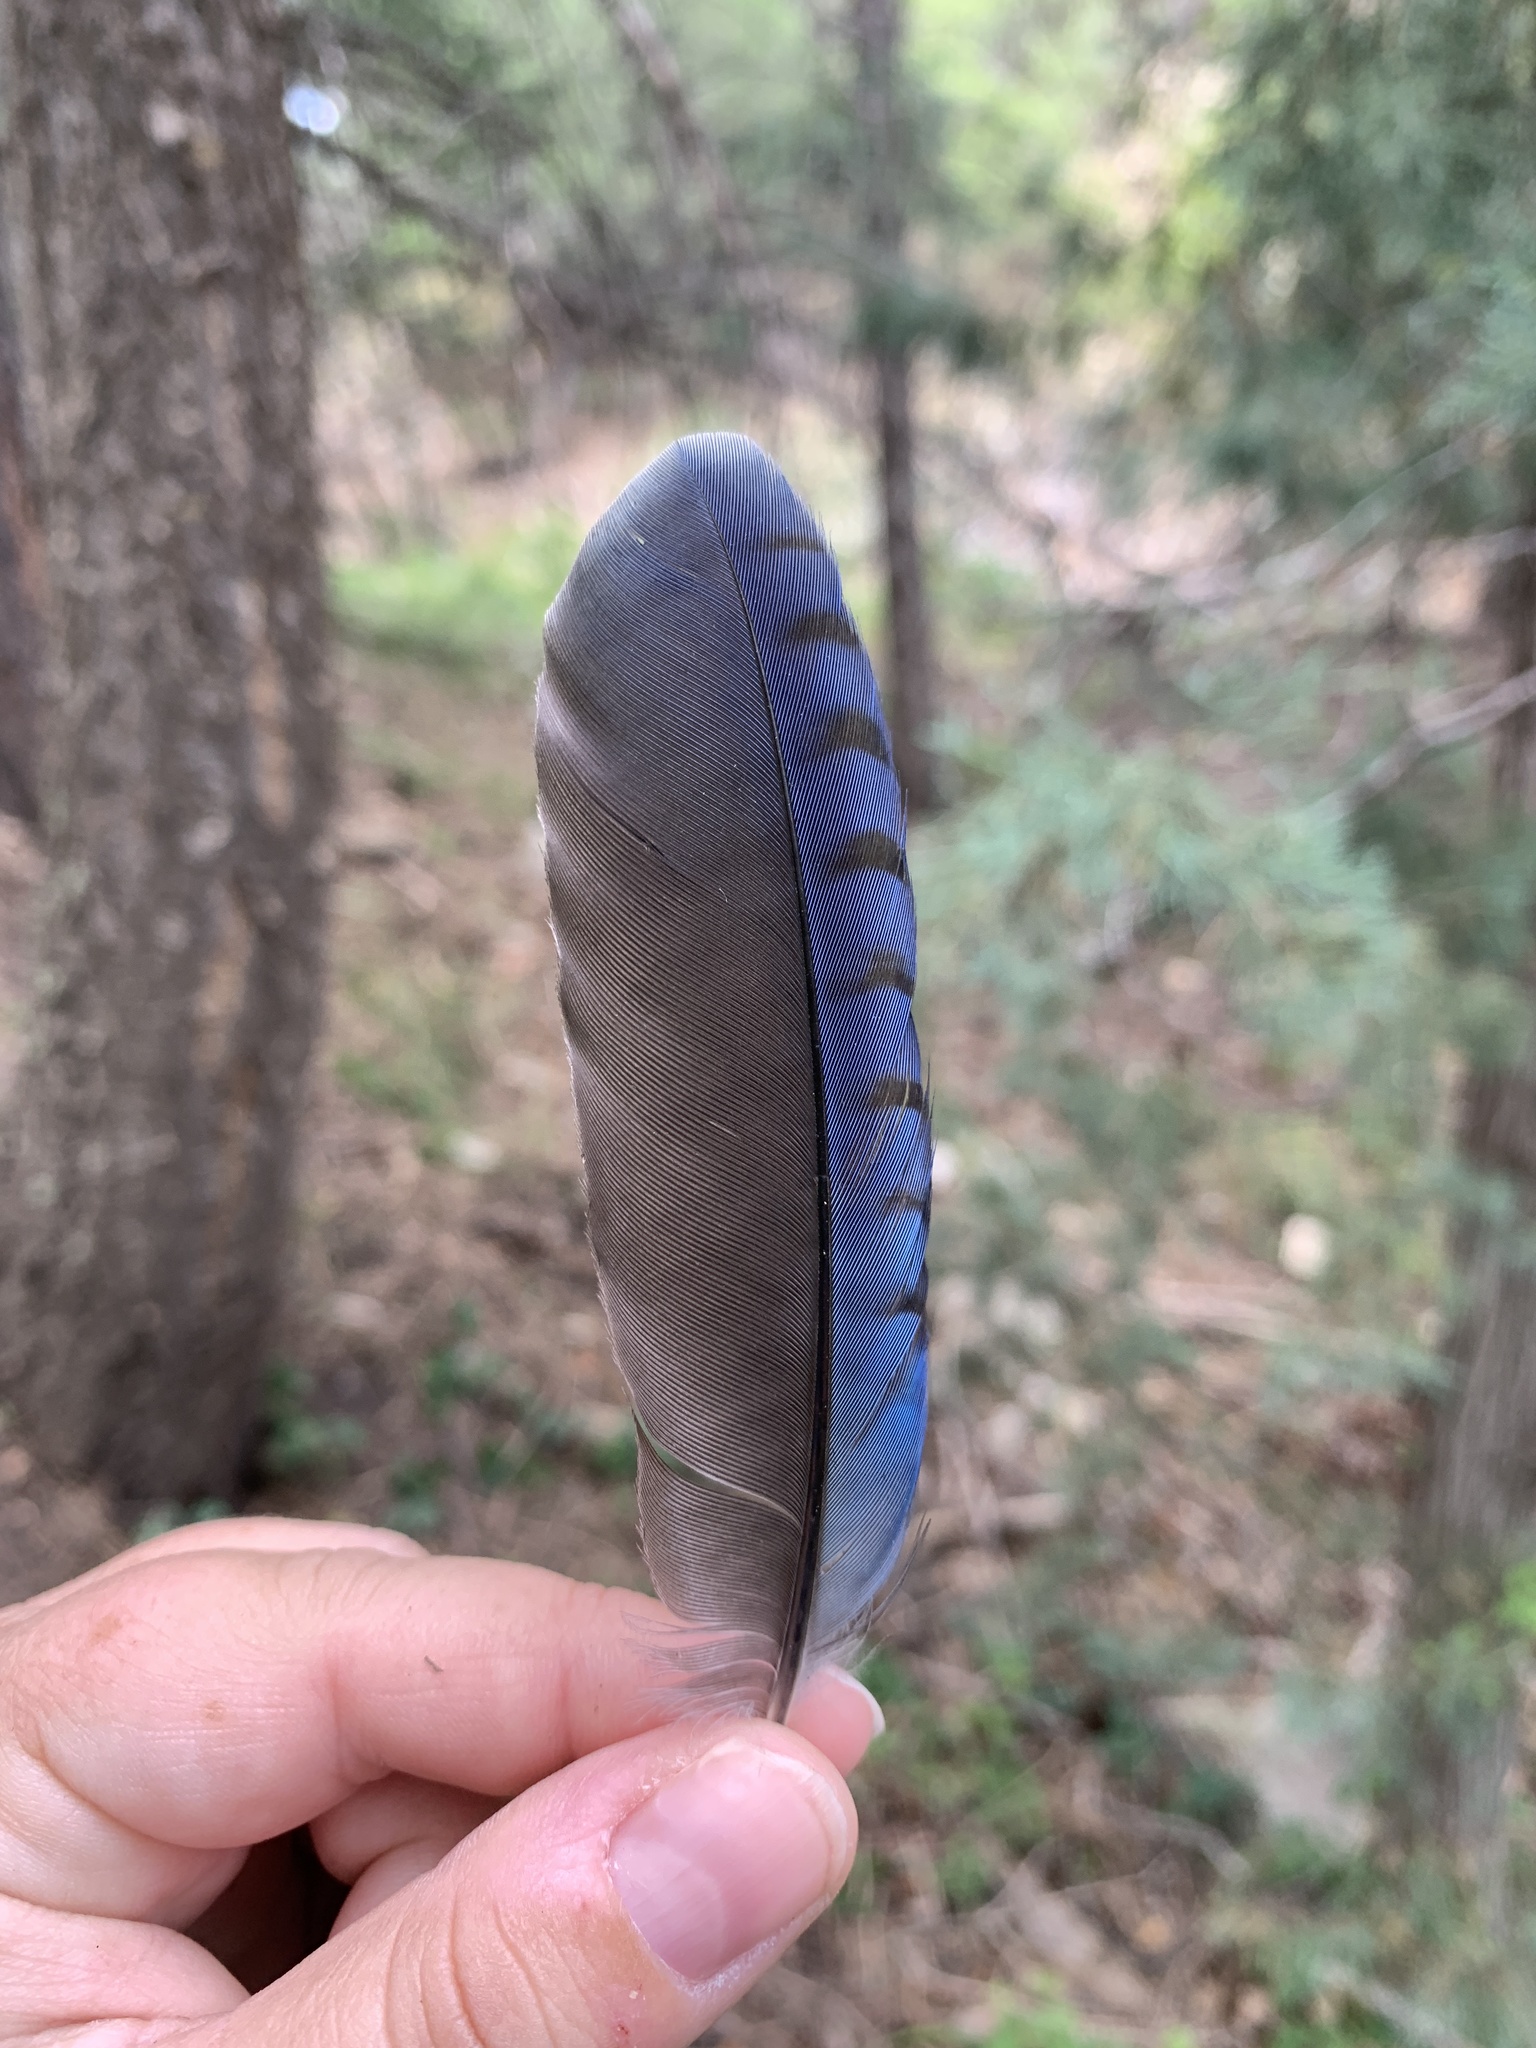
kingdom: Animalia
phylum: Chordata
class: Aves
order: Passeriformes
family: Corvidae
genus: Cyanocitta
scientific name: Cyanocitta stelleri
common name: Steller's jay
